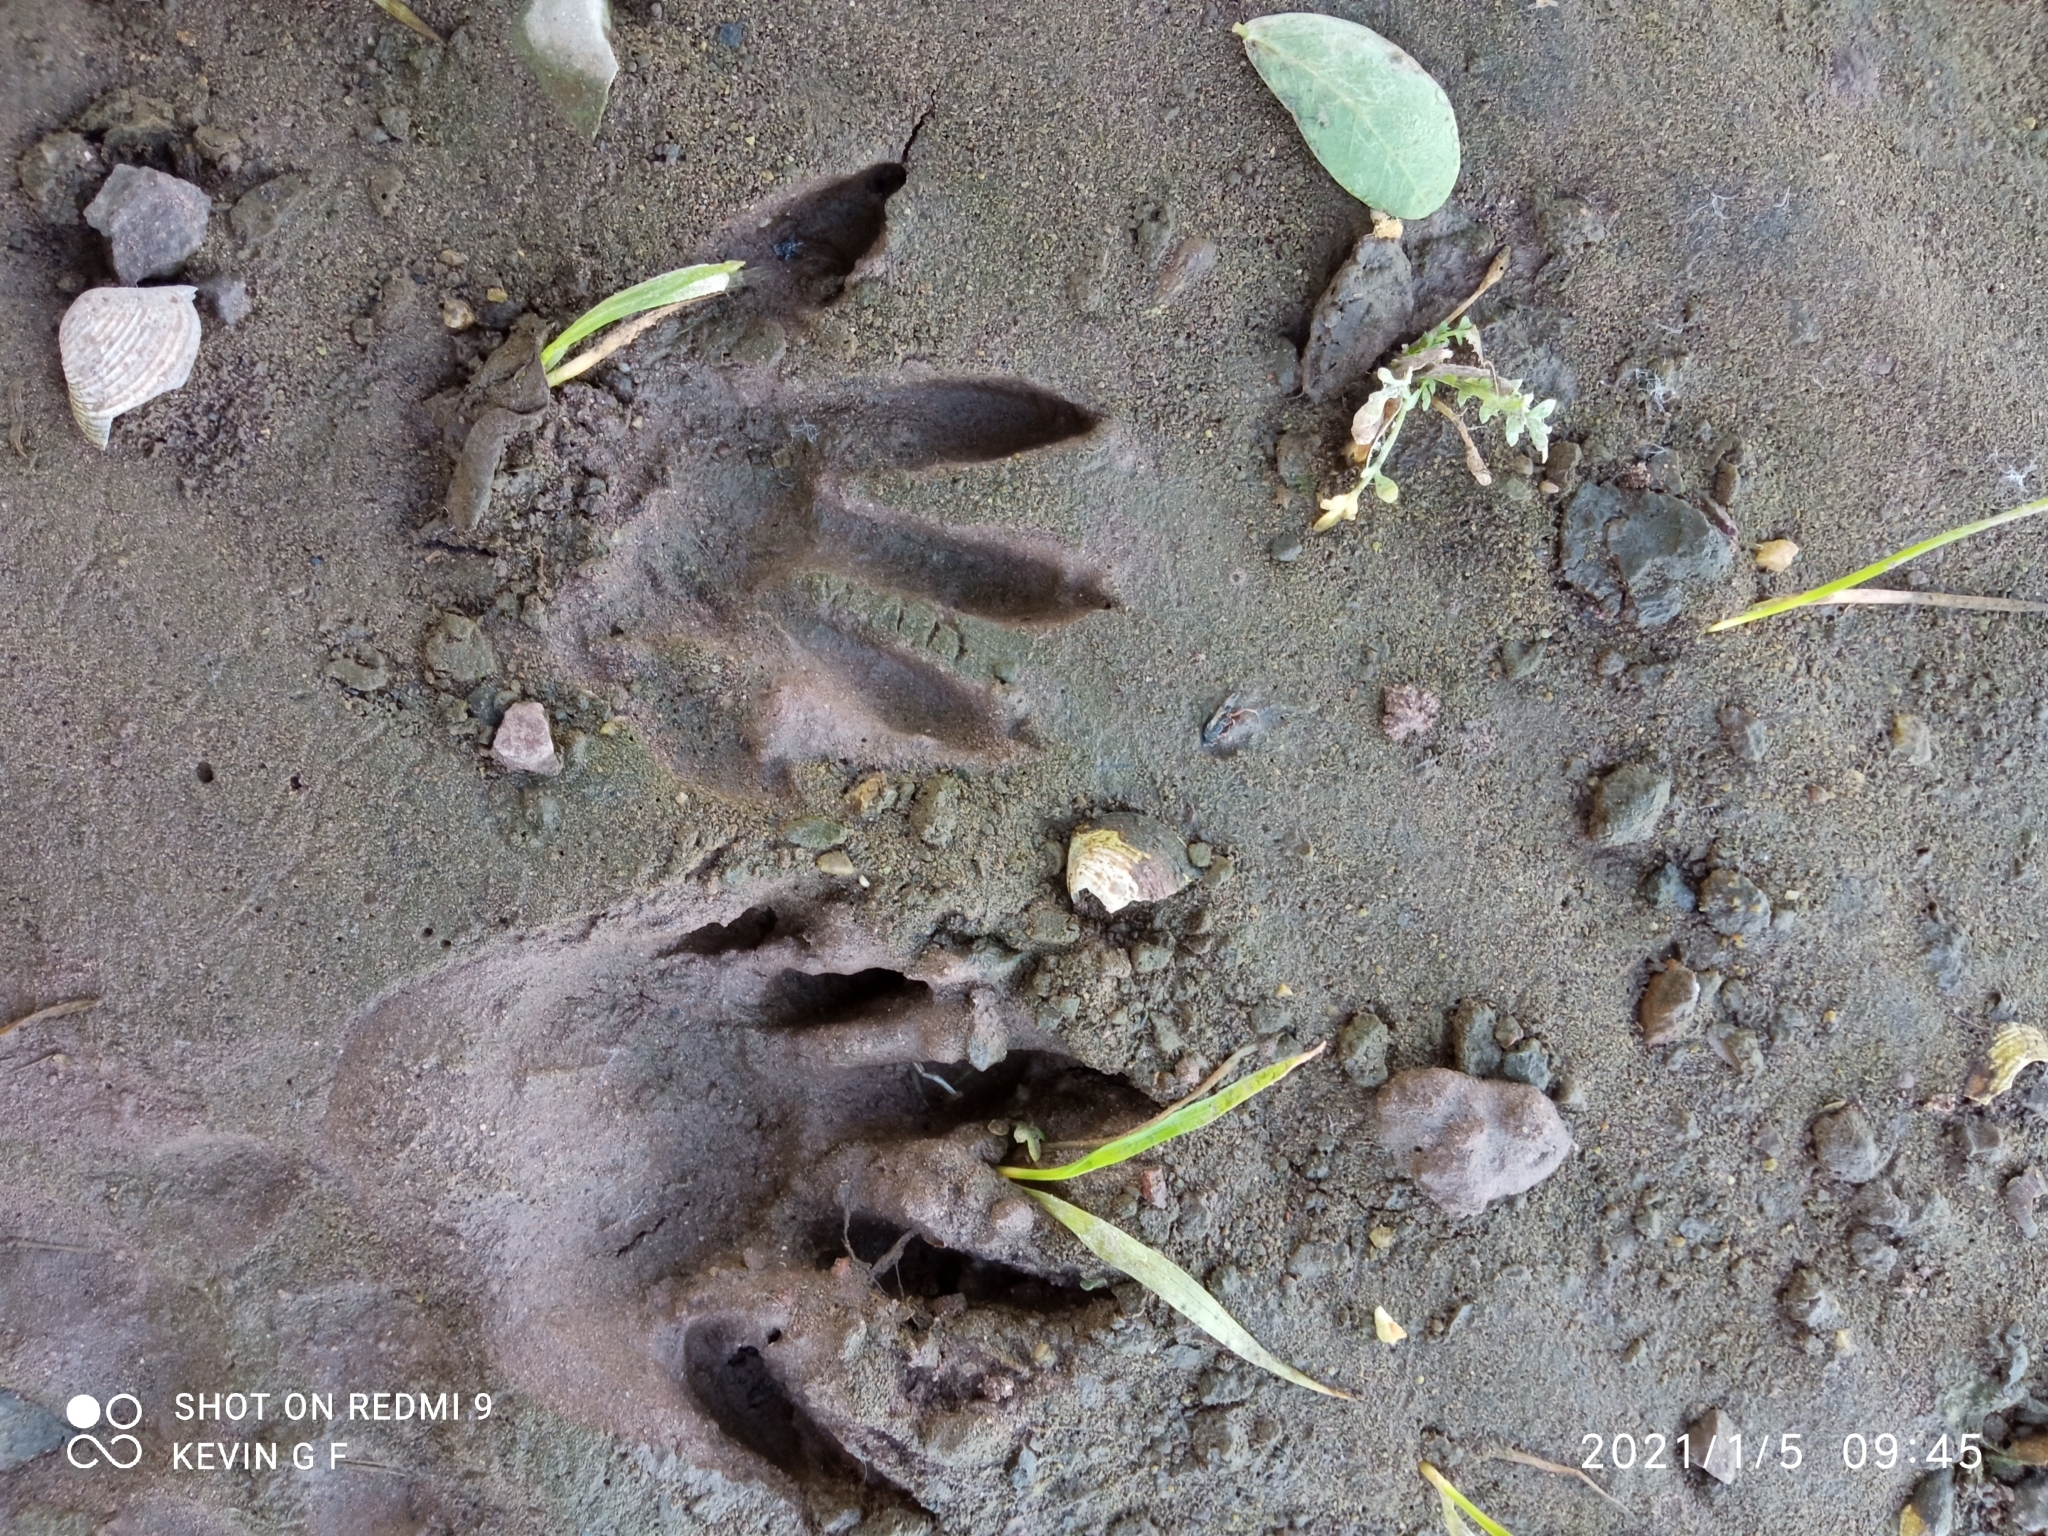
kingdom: Animalia
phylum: Chordata
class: Mammalia
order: Carnivora
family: Procyonidae
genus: Procyon
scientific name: Procyon lotor
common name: Raccoon
